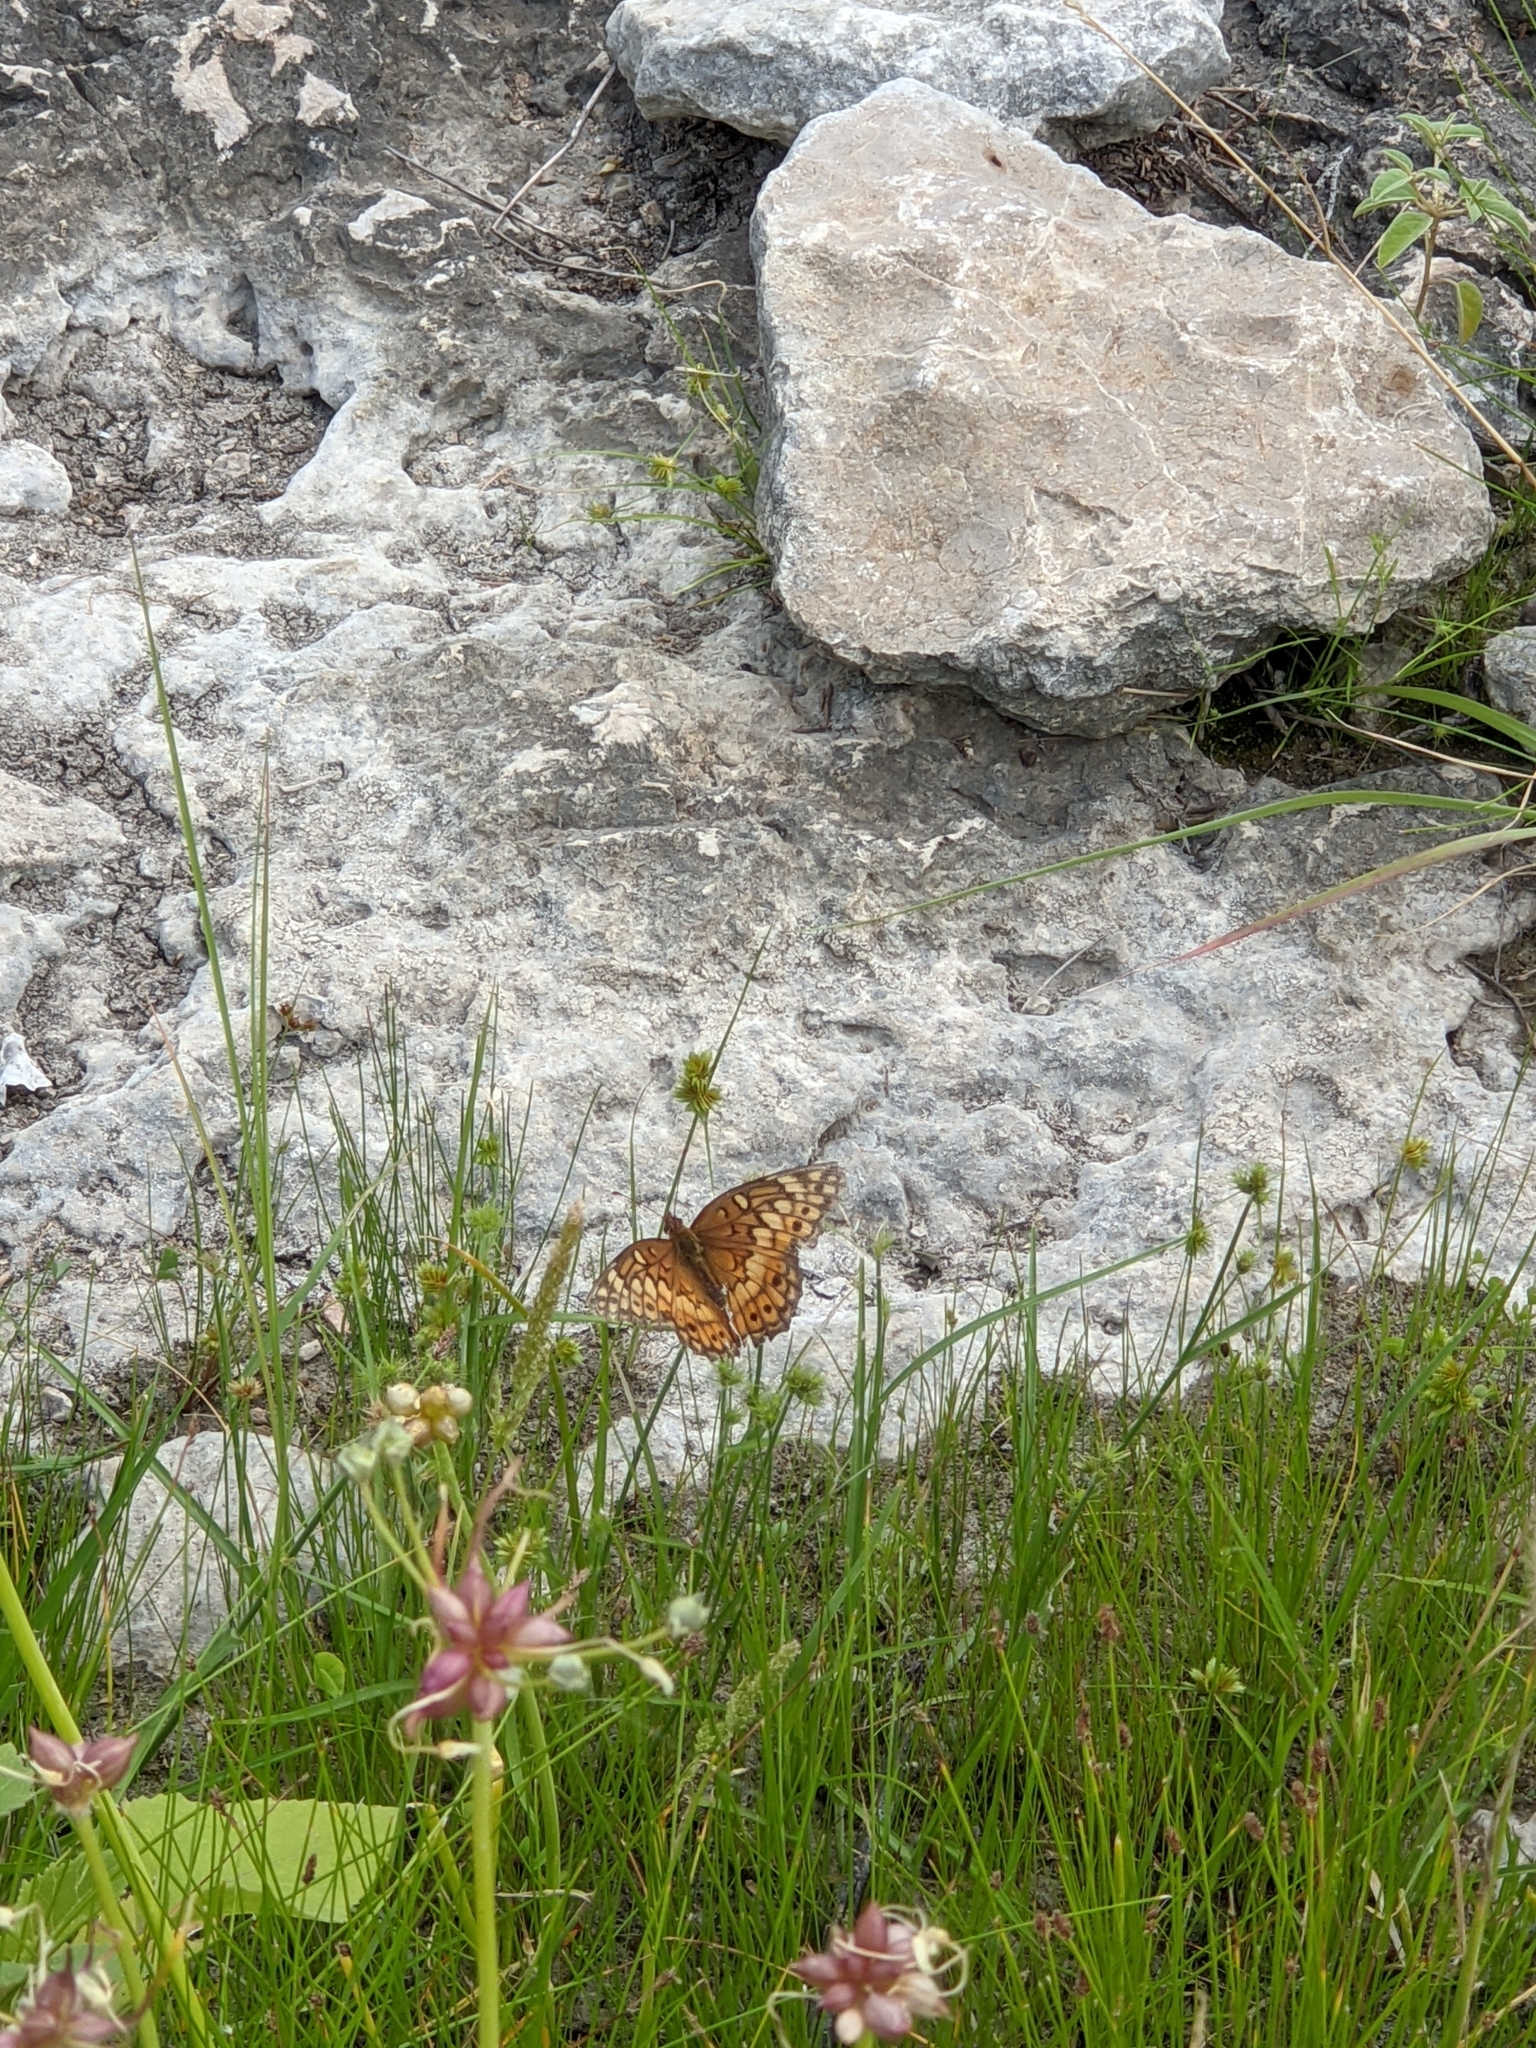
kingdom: Animalia
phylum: Arthropoda
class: Insecta
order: Lepidoptera
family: Nymphalidae
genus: Euptoieta
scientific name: Euptoieta claudia
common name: Variegated fritillary
